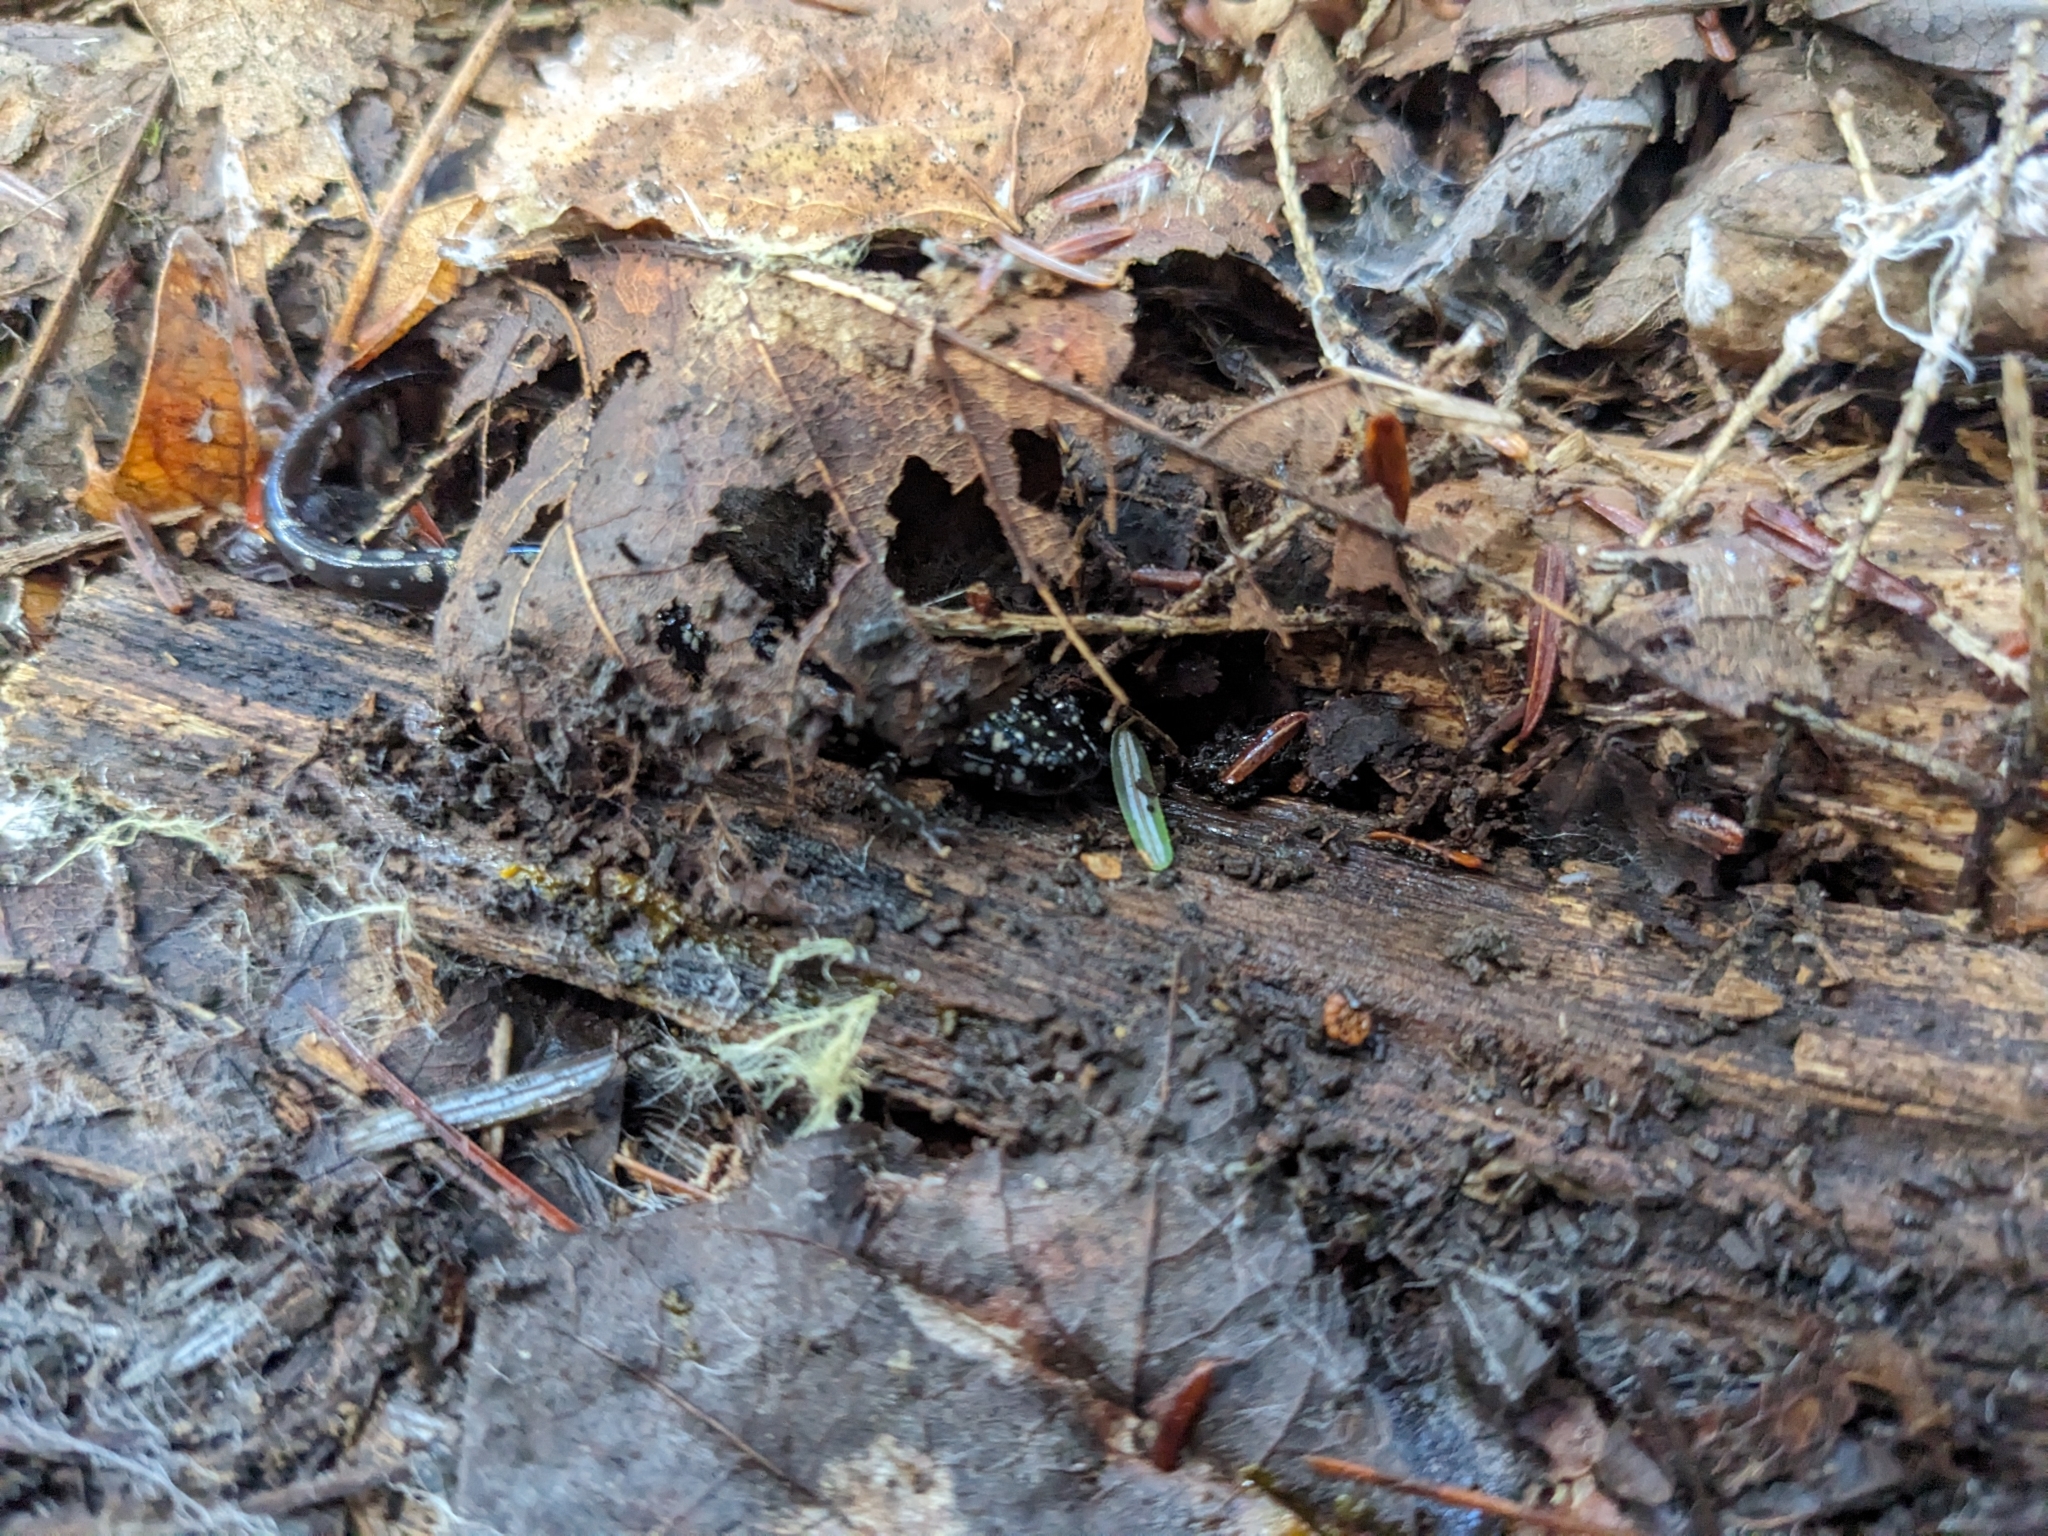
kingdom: Animalia
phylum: Chordata
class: Amphibia
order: Caudata
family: Plethodontidae
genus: Plethodon
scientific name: Plethodon glutinosus
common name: Northern slimy salamander
